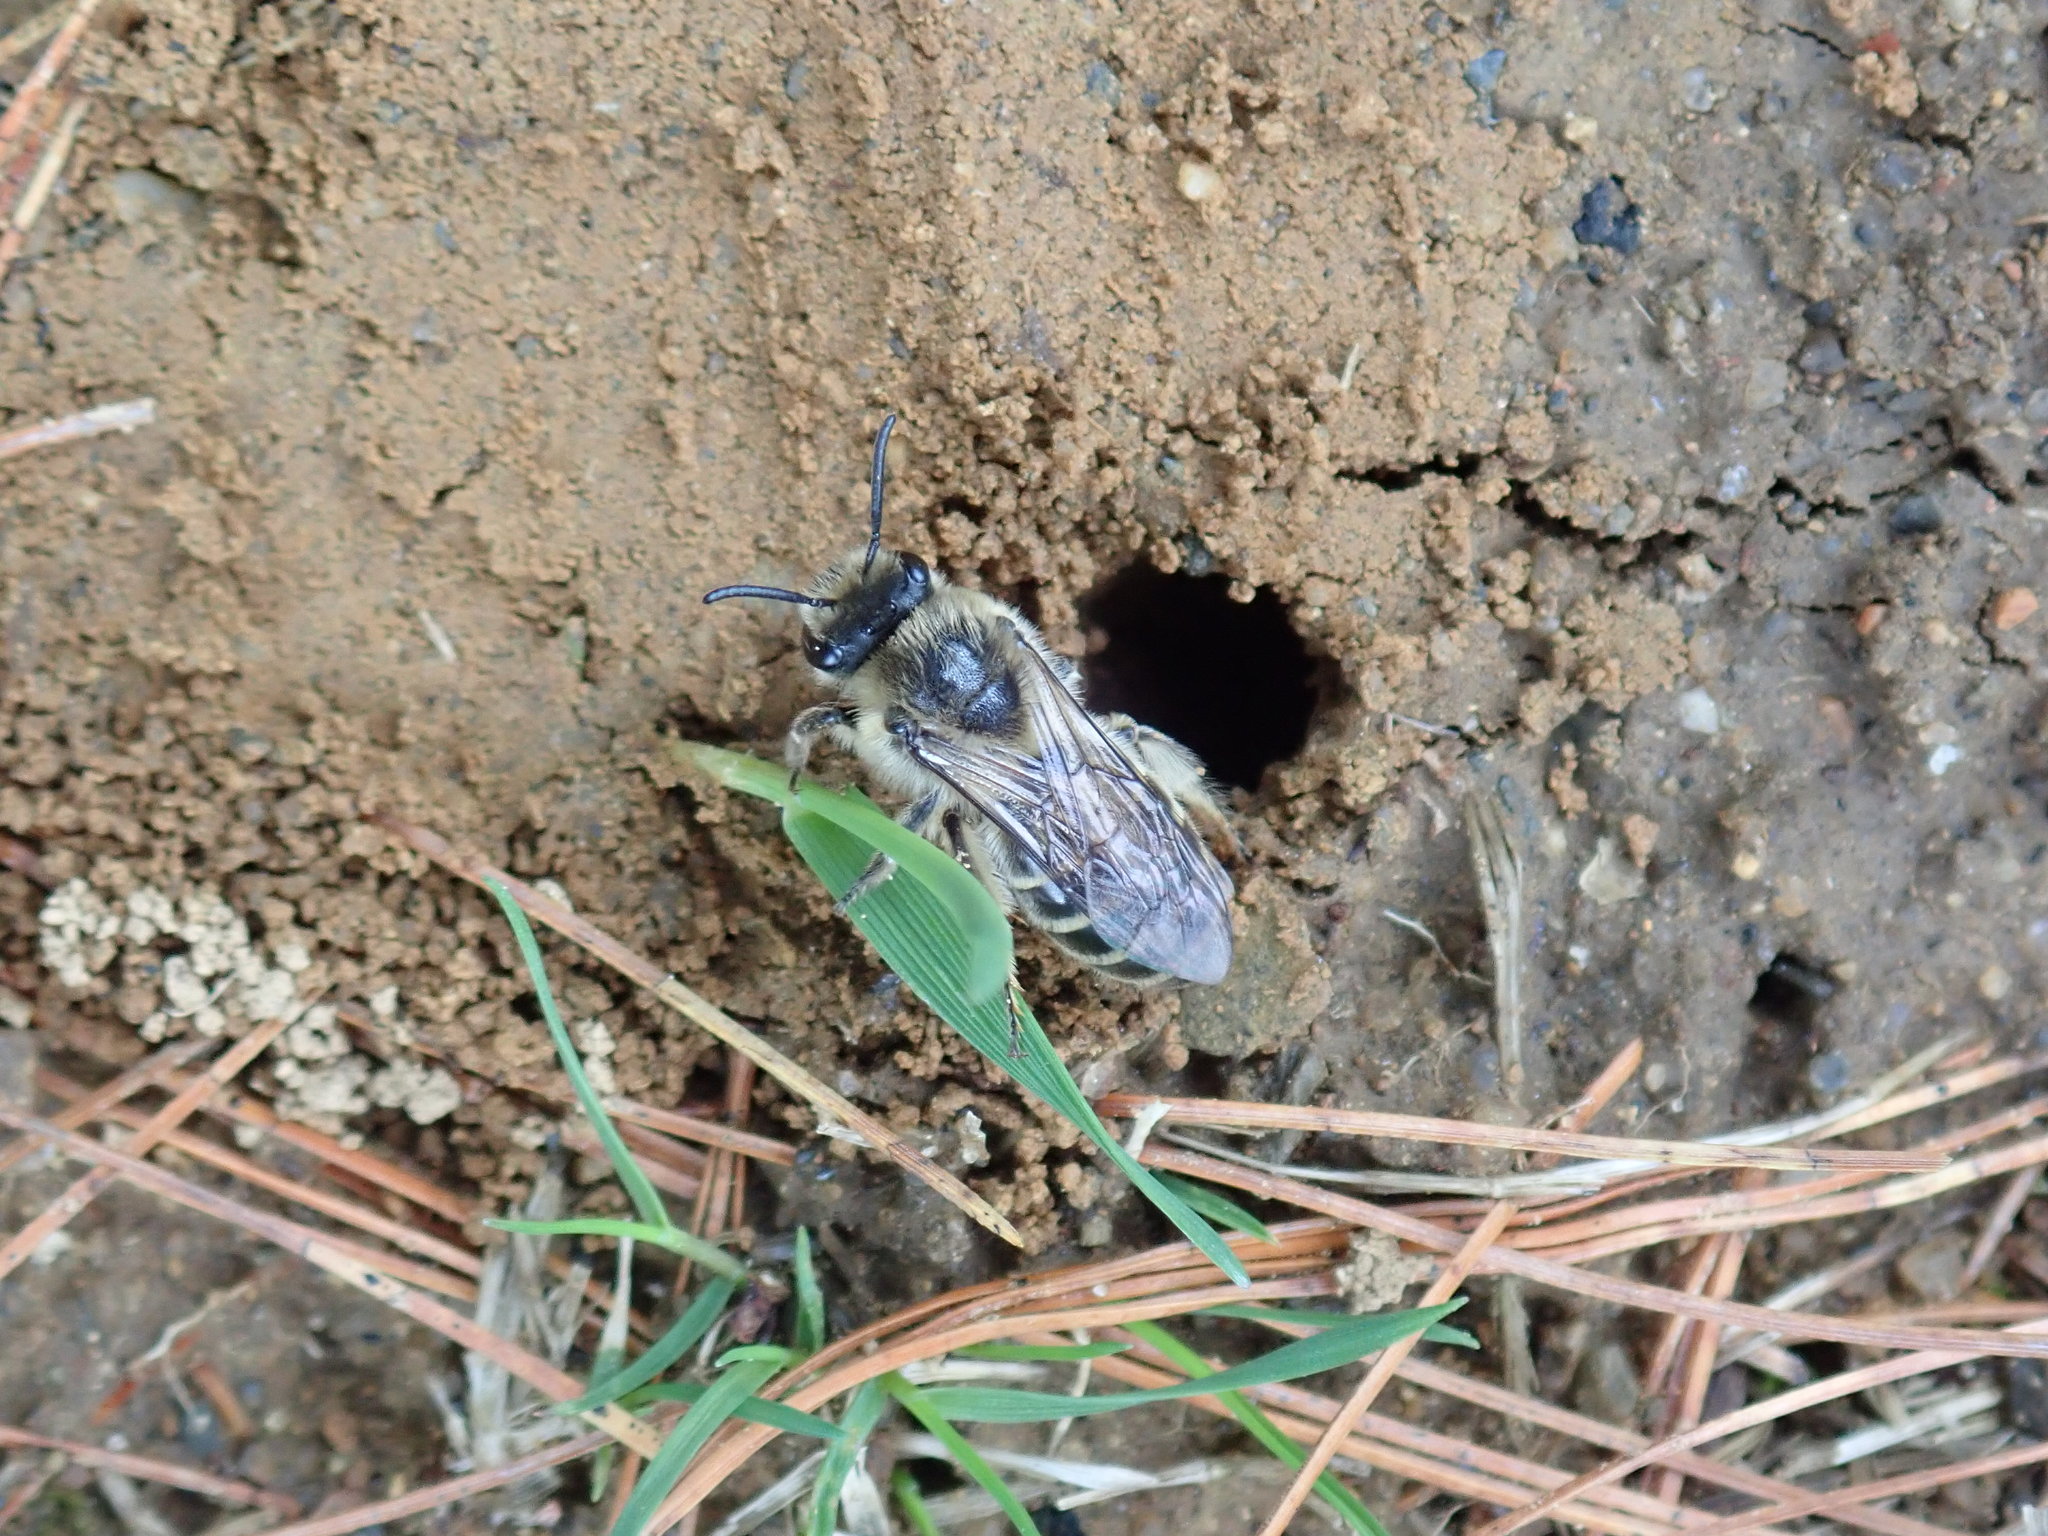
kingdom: Animalia
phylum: Arthropoda
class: Insecta
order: Hymenoptera
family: Colletidae
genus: Colletes
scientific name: Colletes inaequalis
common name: Unequal cellophane bee
